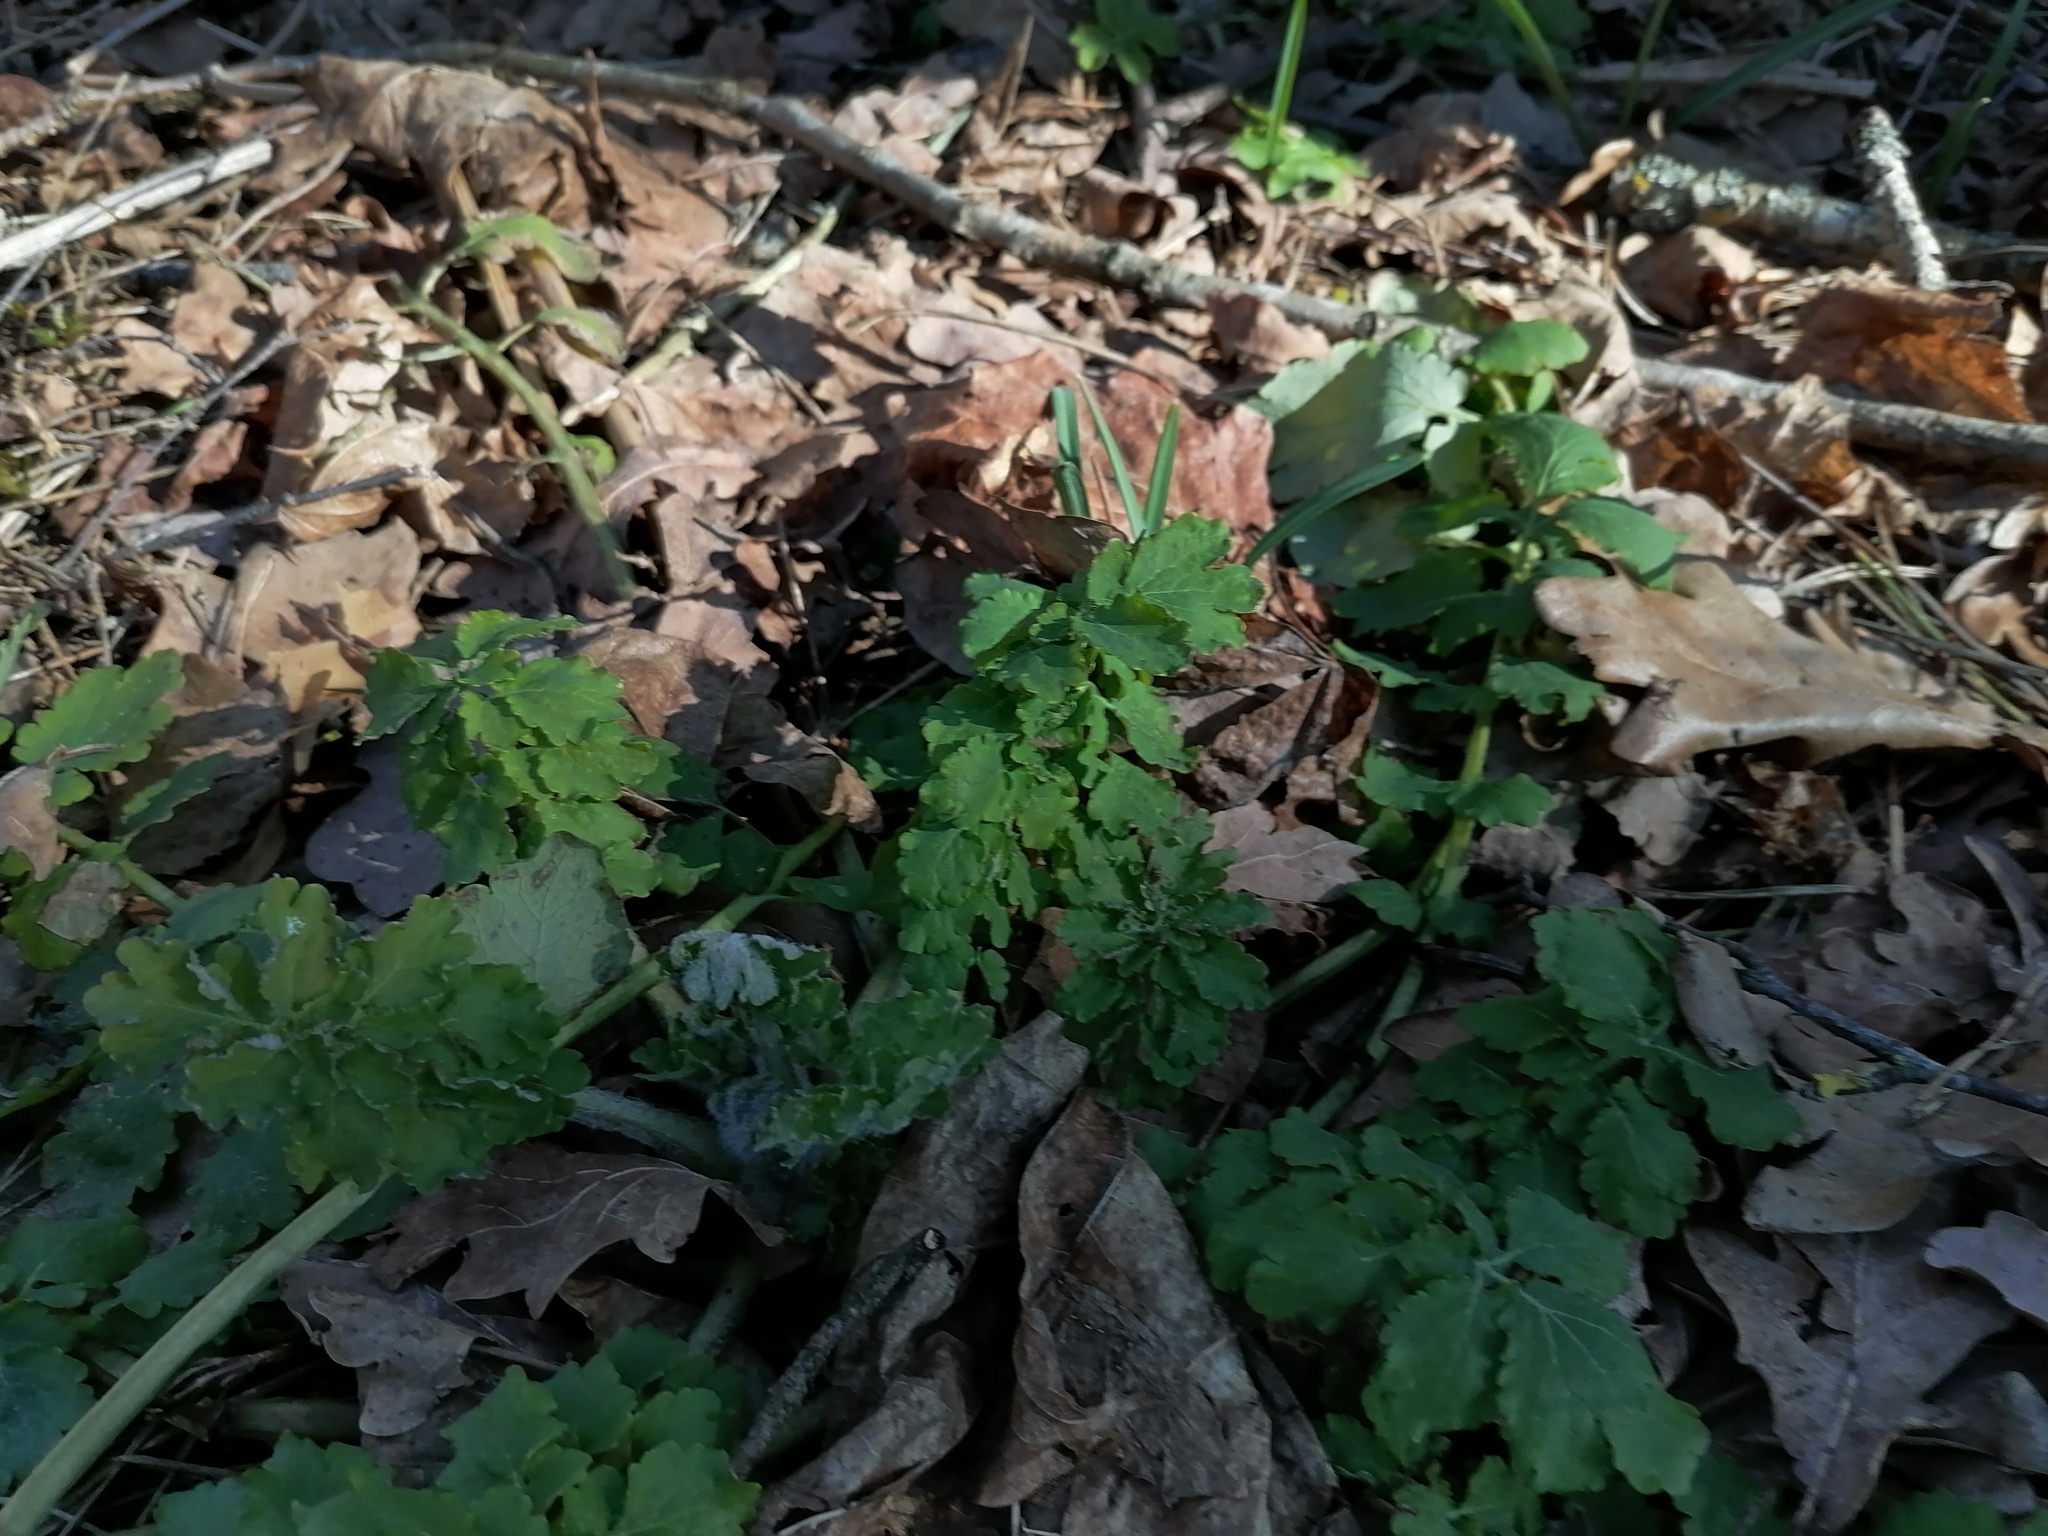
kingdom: Plantae
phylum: Tracheophyta
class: Magnoliopsida
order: Ranunculales
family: Papaveraceae
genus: Chelidonium
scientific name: Chelidonium majus
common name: Greater celandine
